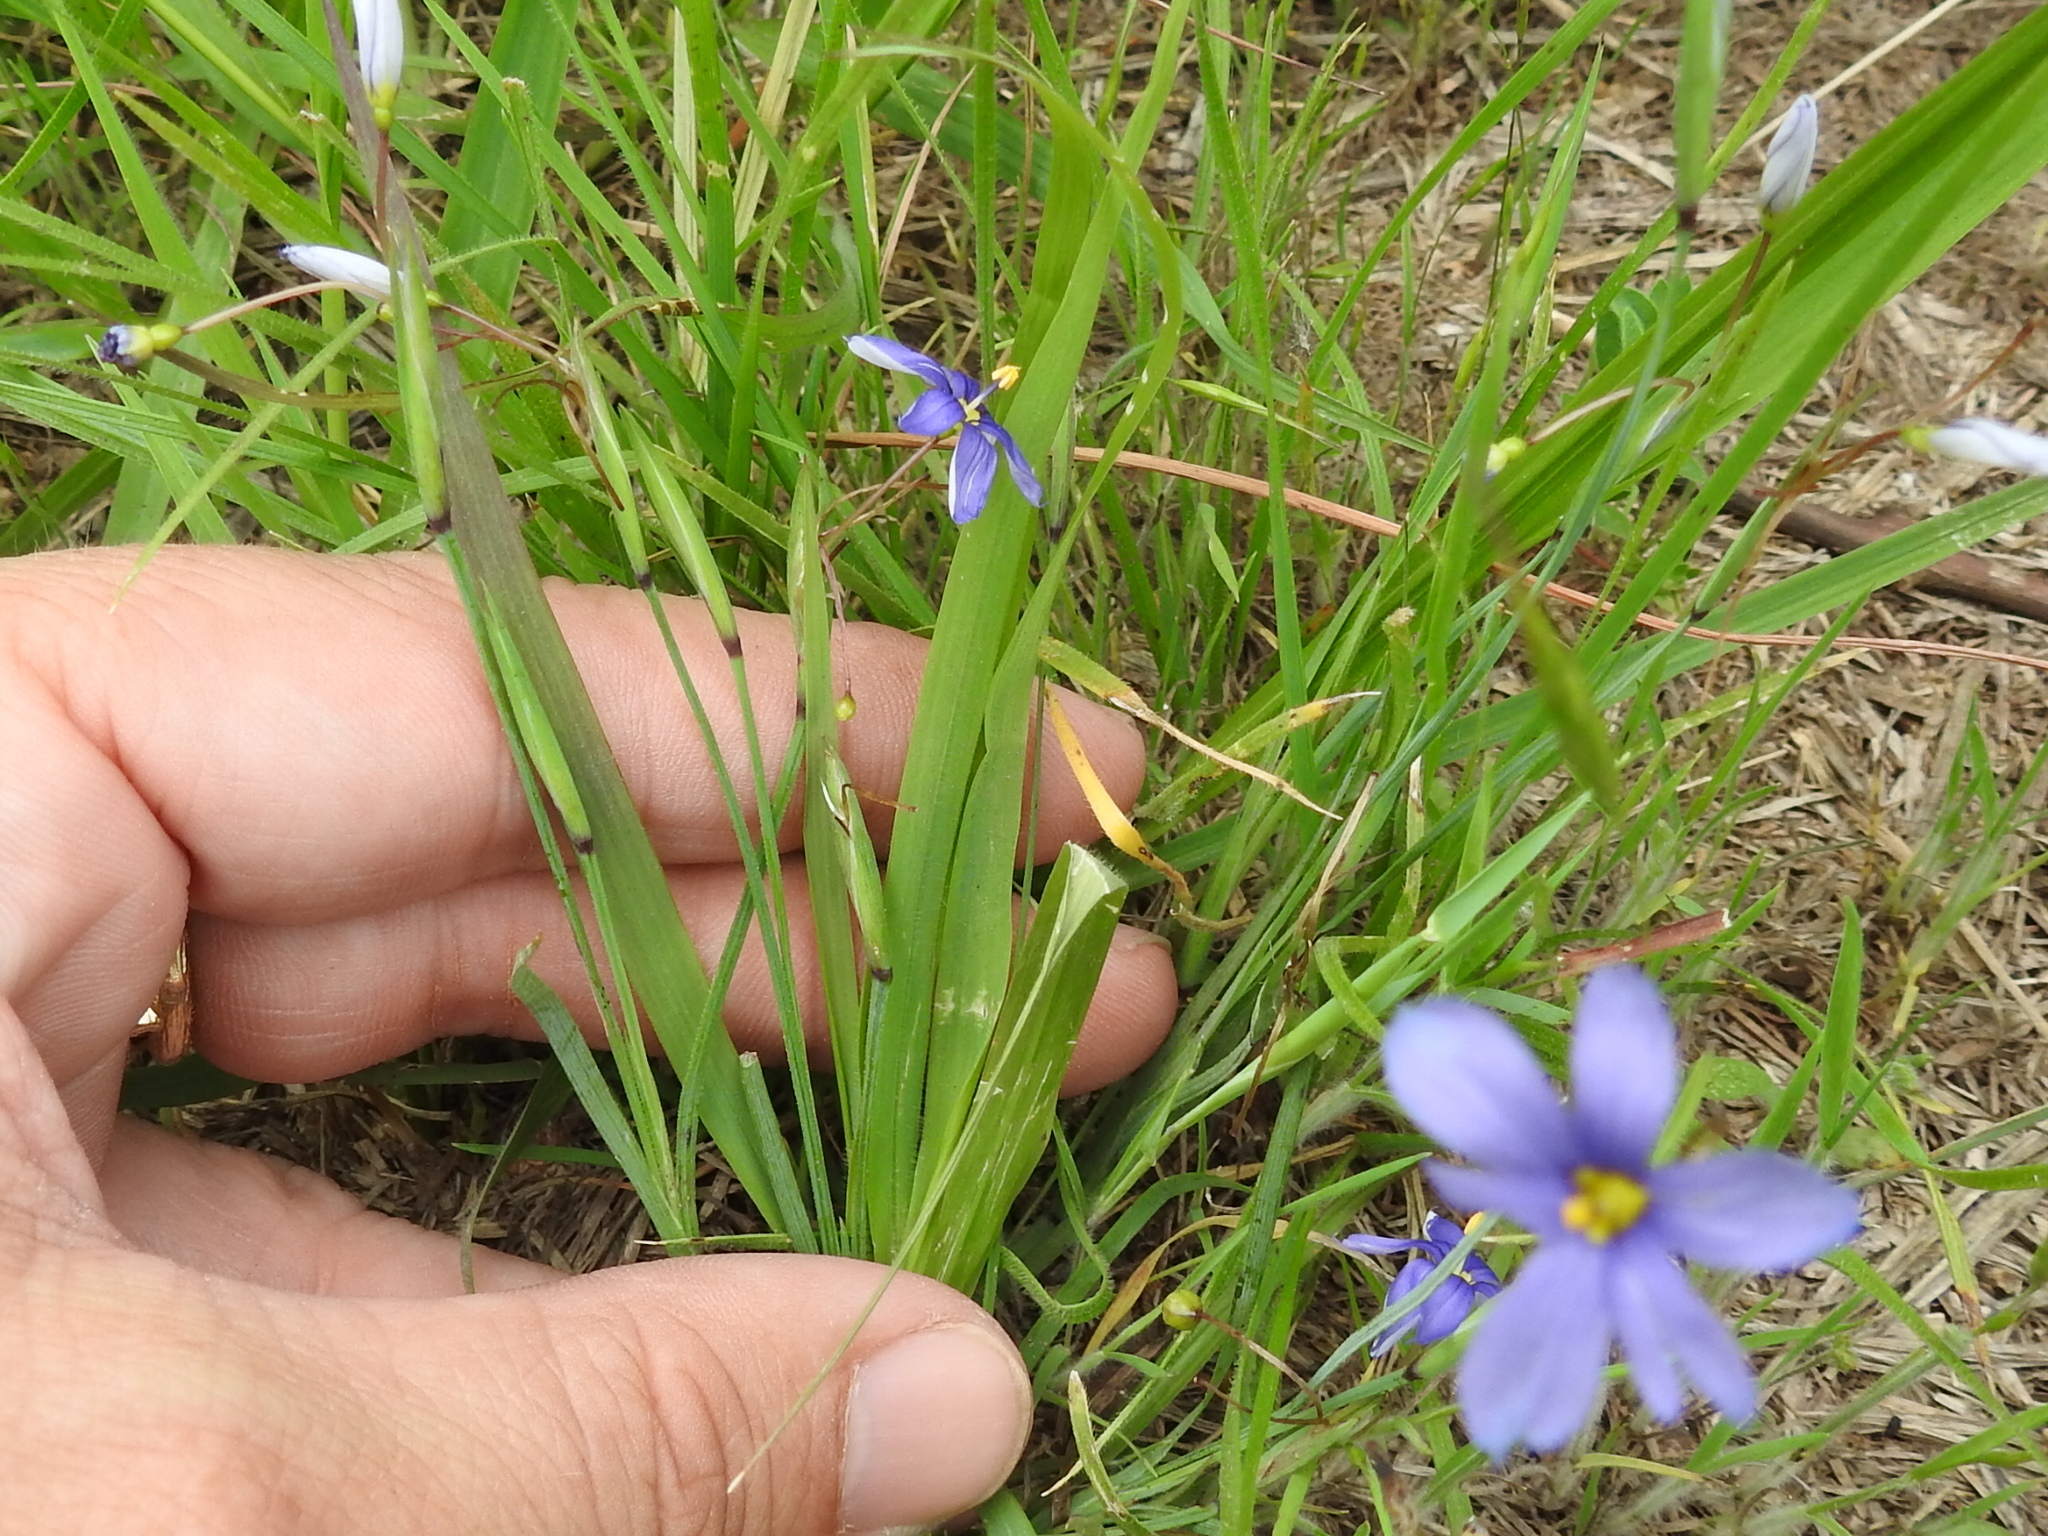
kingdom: Plantae
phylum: Tracheophyta
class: Liliopsida
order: Asparagales
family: Iridaceae
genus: Sisyrinchium
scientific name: Sisyrinchium pruinosum
